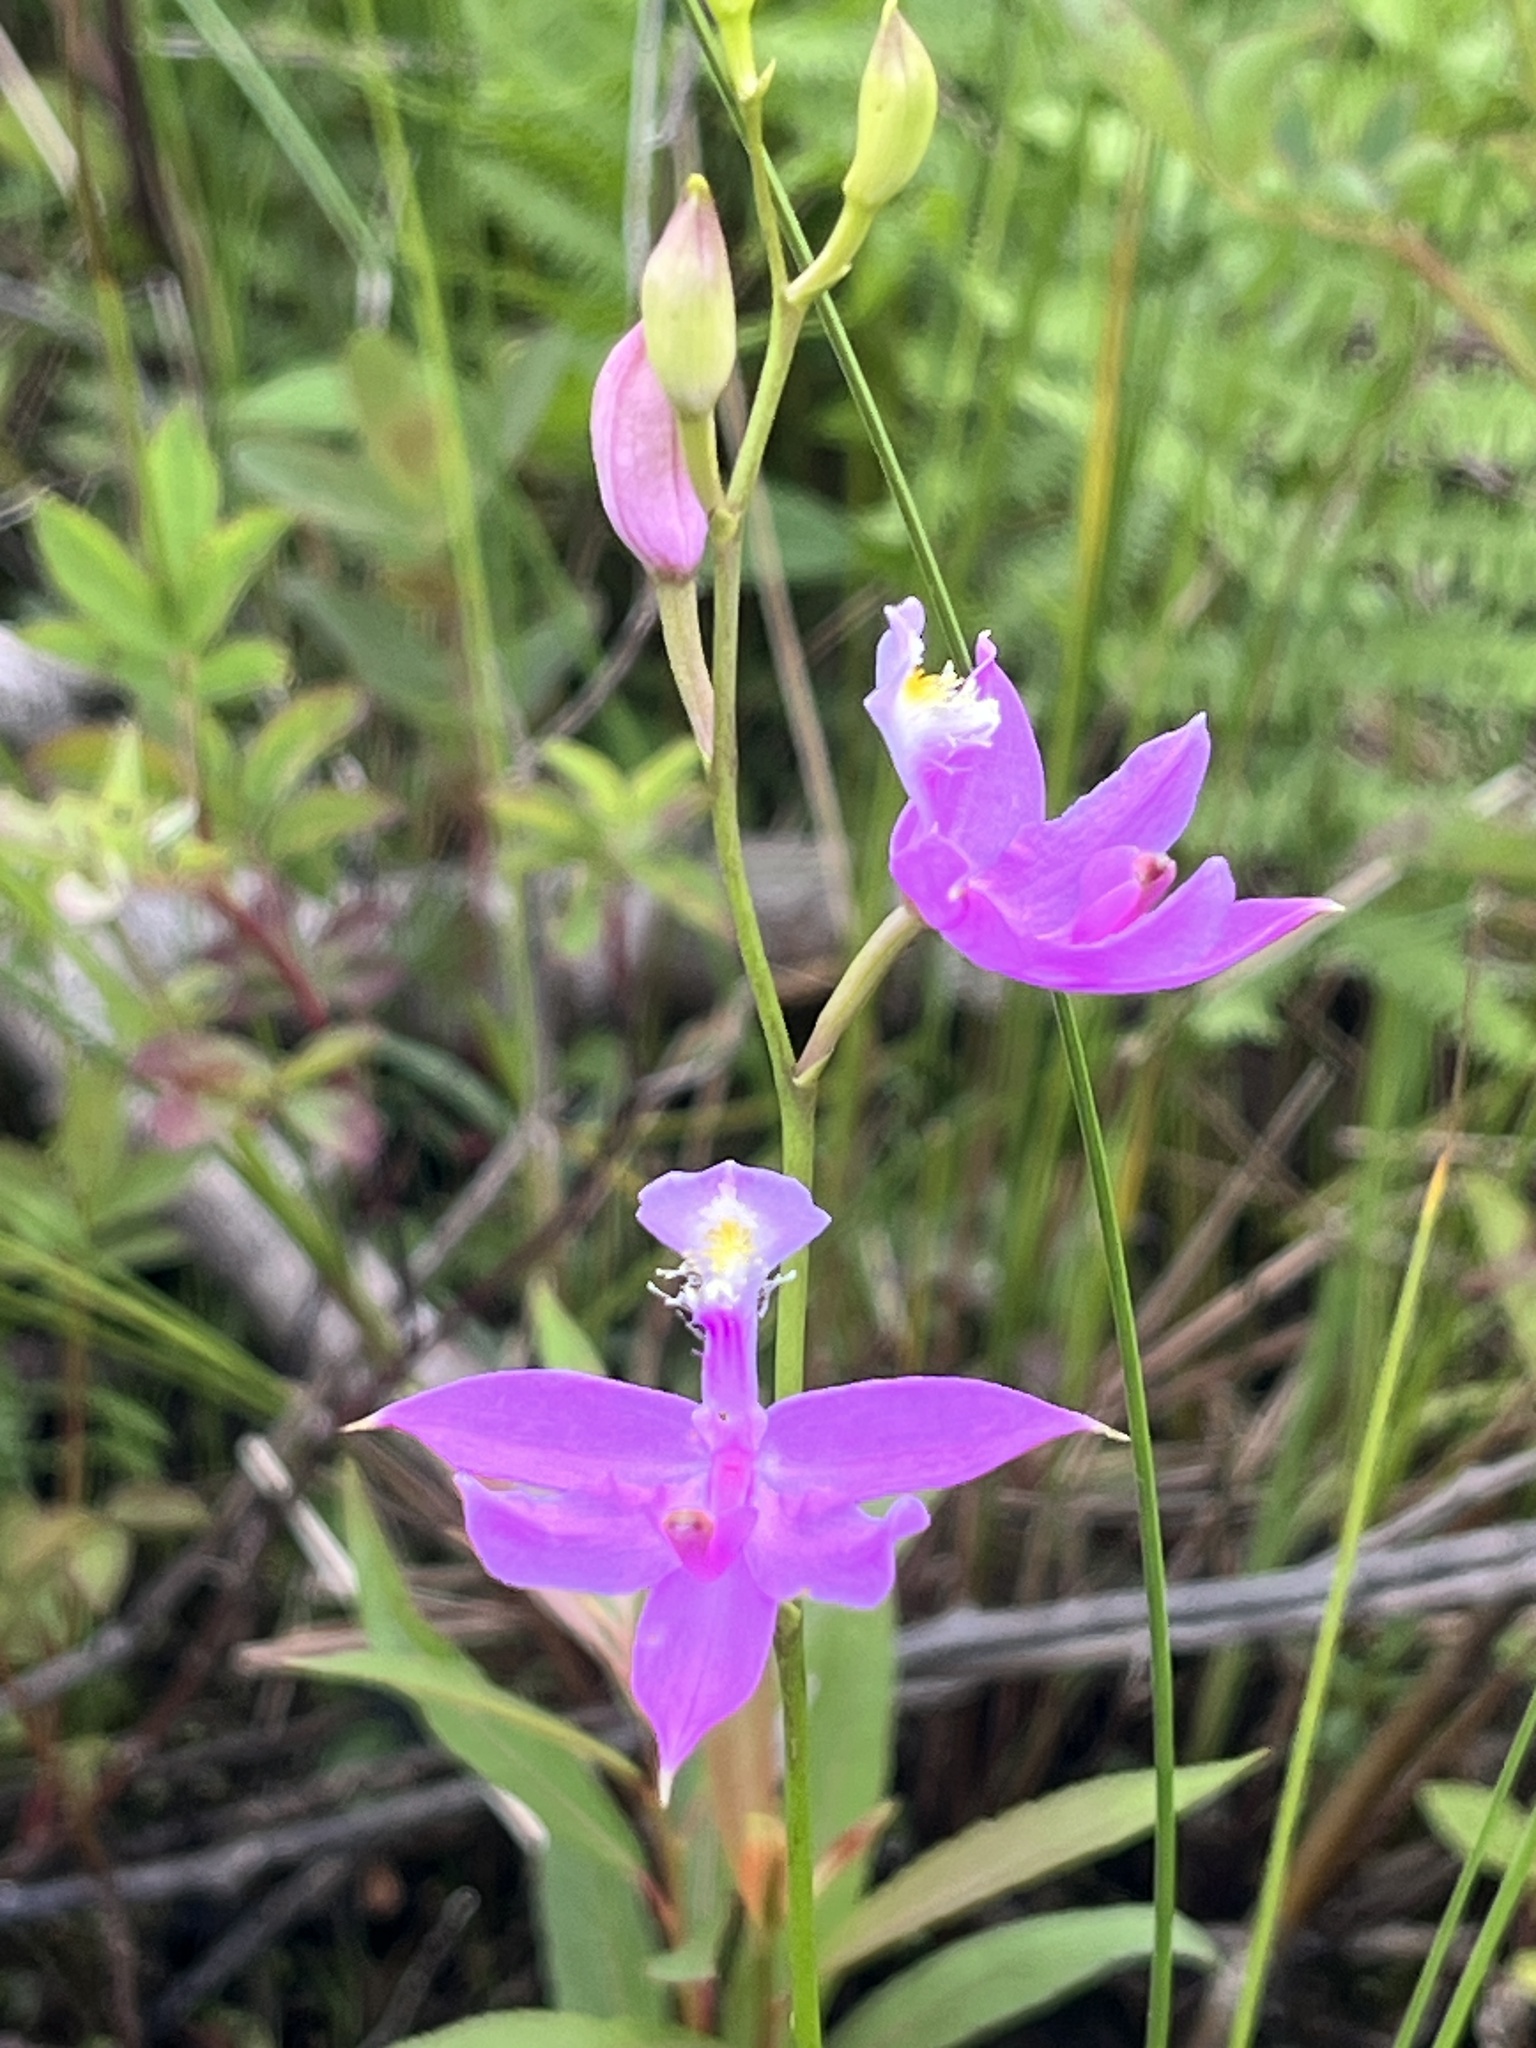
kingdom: Plantae
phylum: Tracheophyta
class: Liliopsida
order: Asparagales
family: Orchidaceae
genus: Calopogon
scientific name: Calopogon tuberosus
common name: Grass-pink
